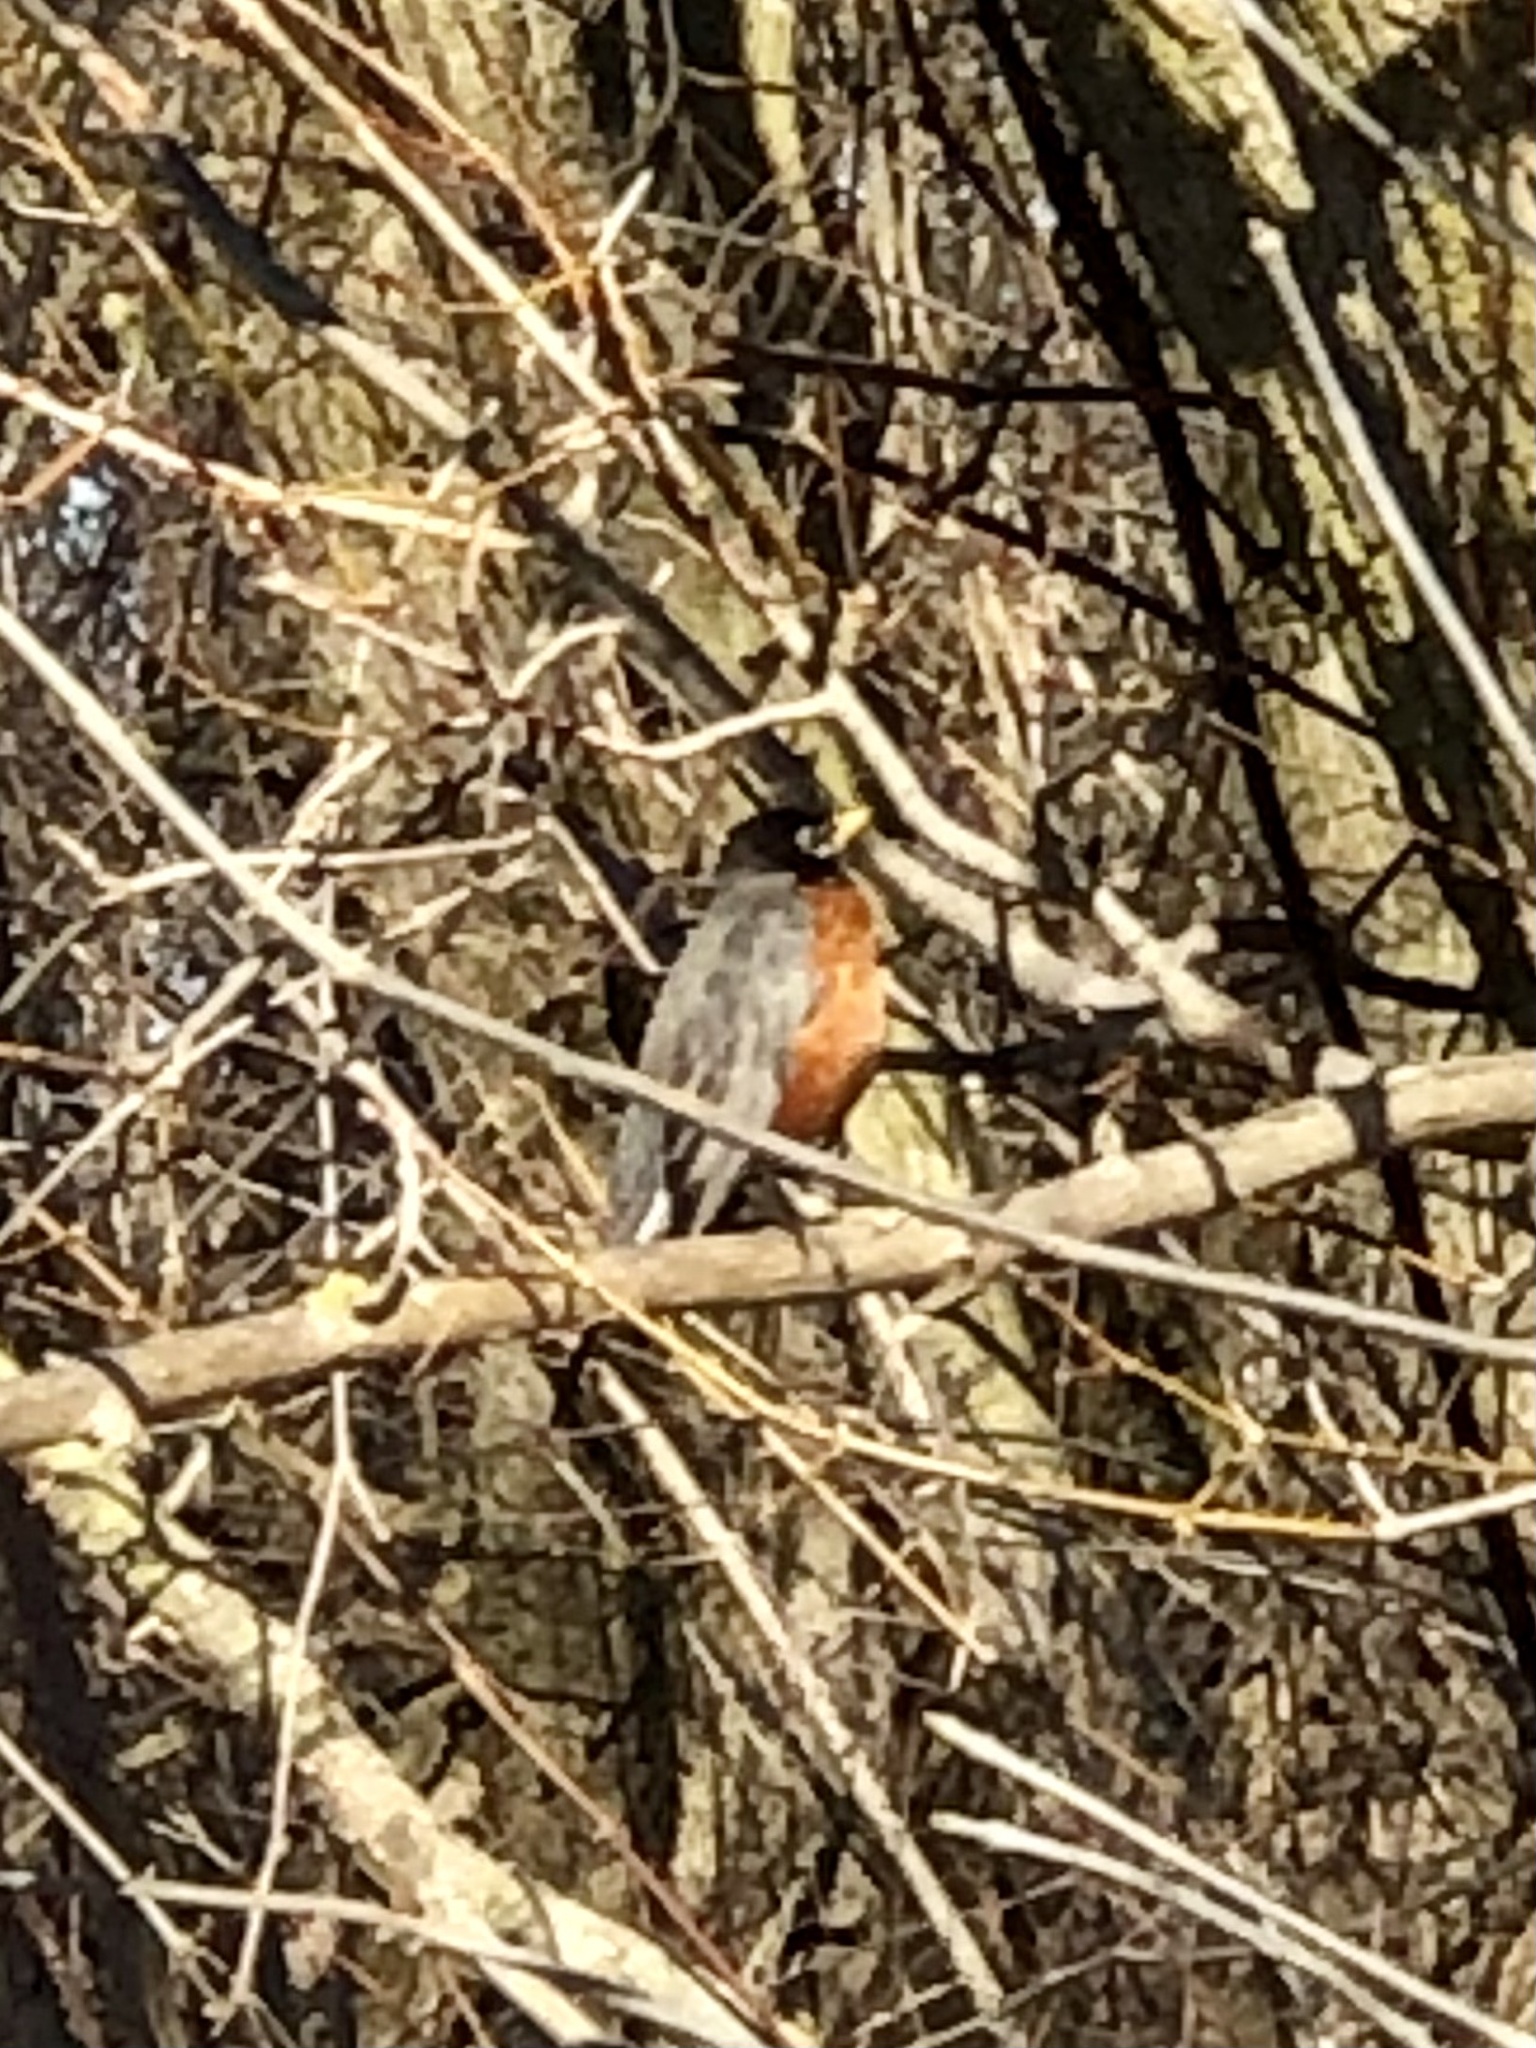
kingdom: Animalia
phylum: Chordata
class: Aves
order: Passeriformes
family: Turdidae
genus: Turdus
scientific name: Turdus migratorius
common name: American robin
